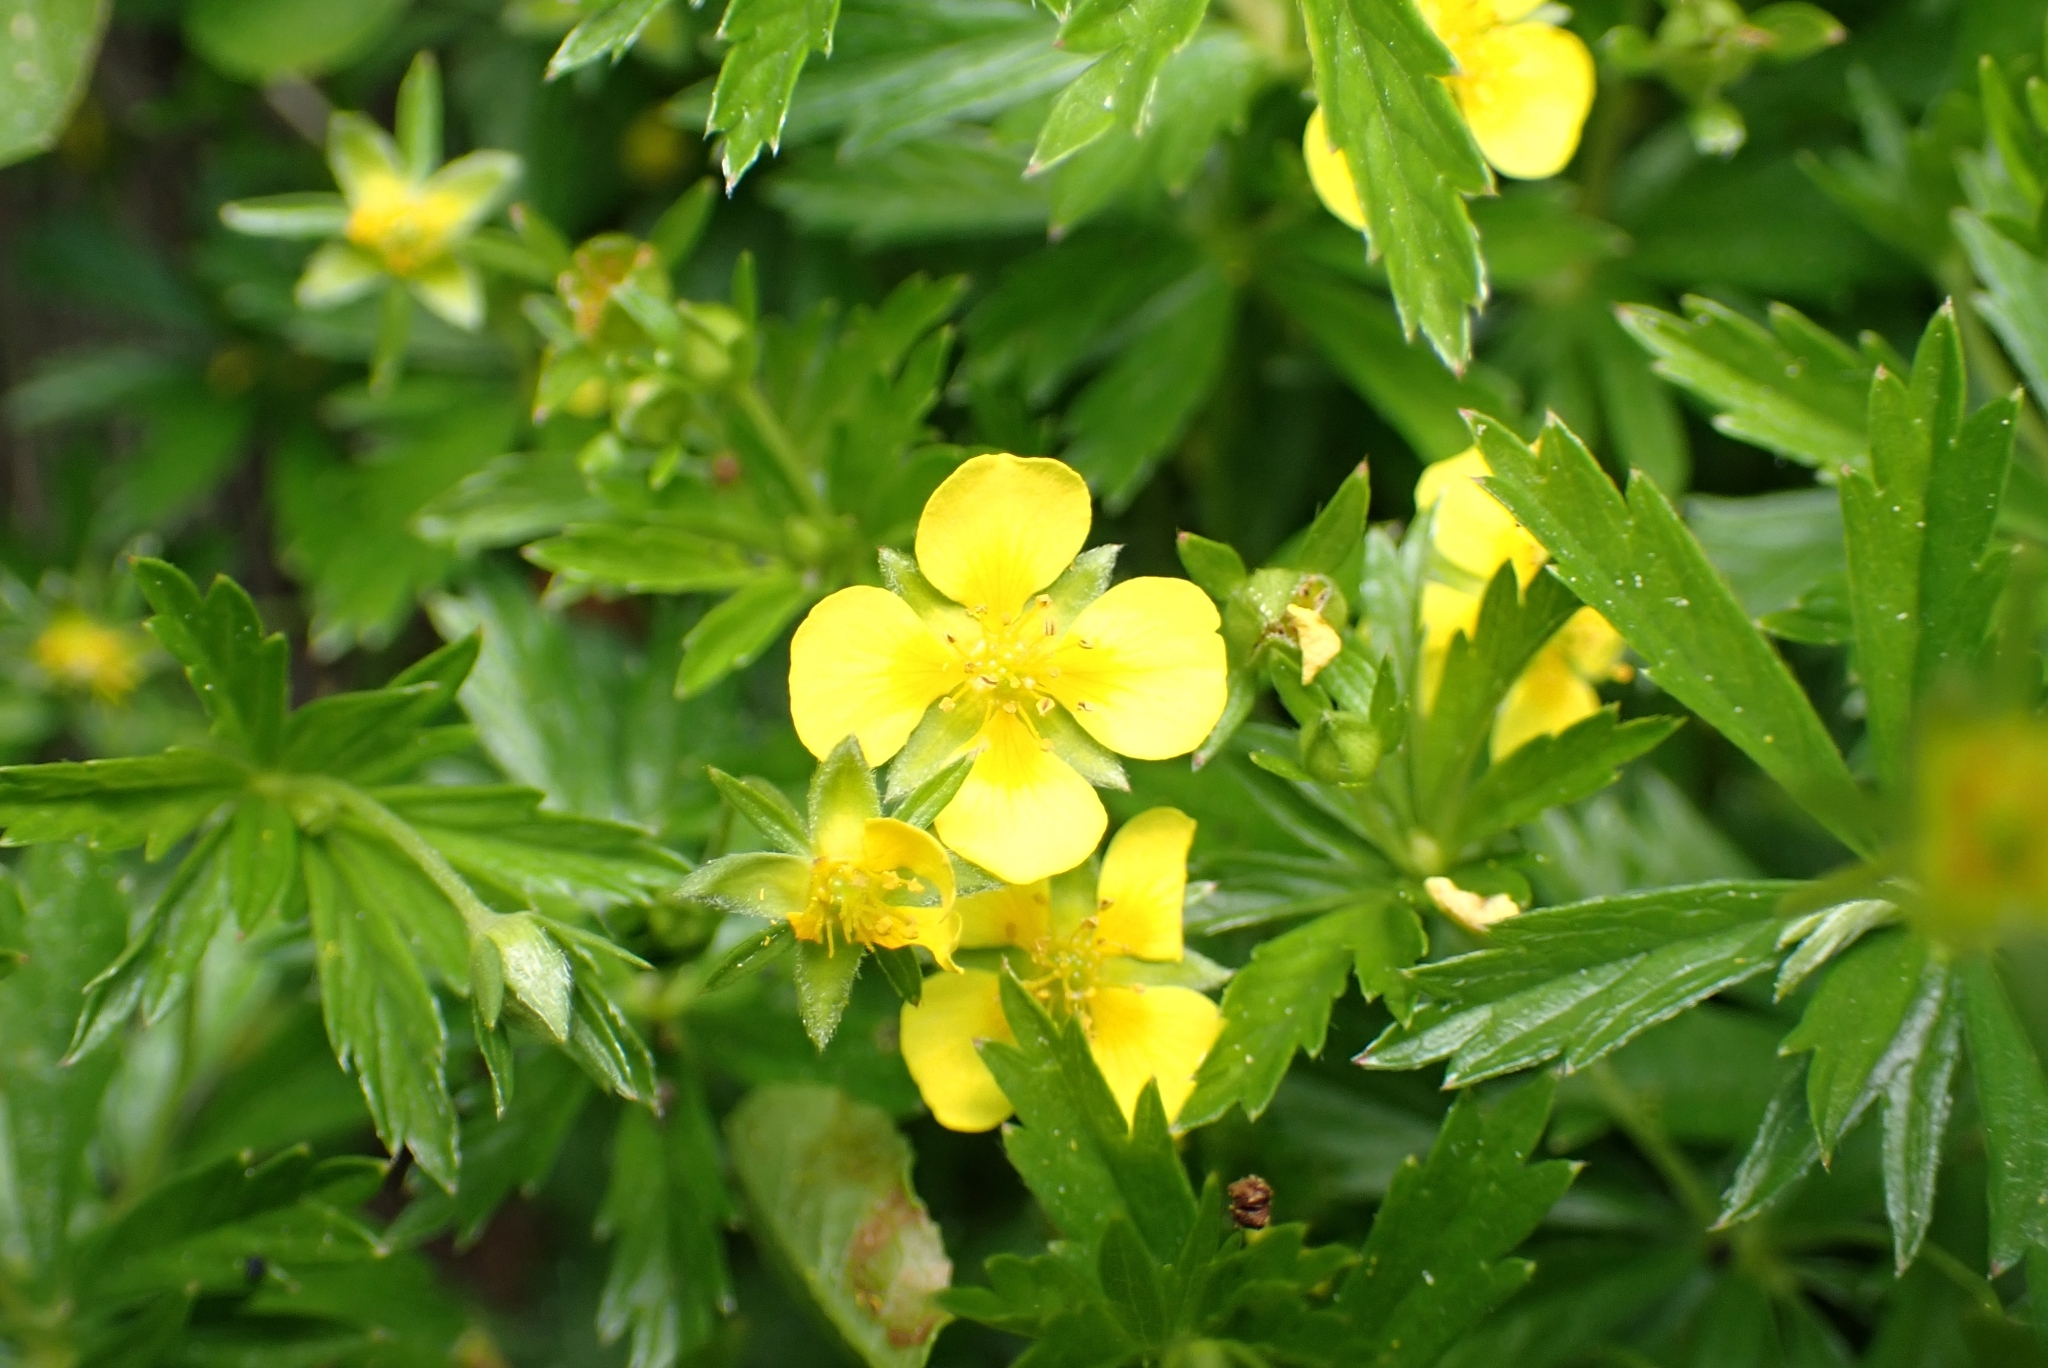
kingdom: Plantae
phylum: Tracheophyta
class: Magnoliopsida
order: Rosales
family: Rosaceae
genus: Potentilla
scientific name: Potentilla erecta
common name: Tormentil
